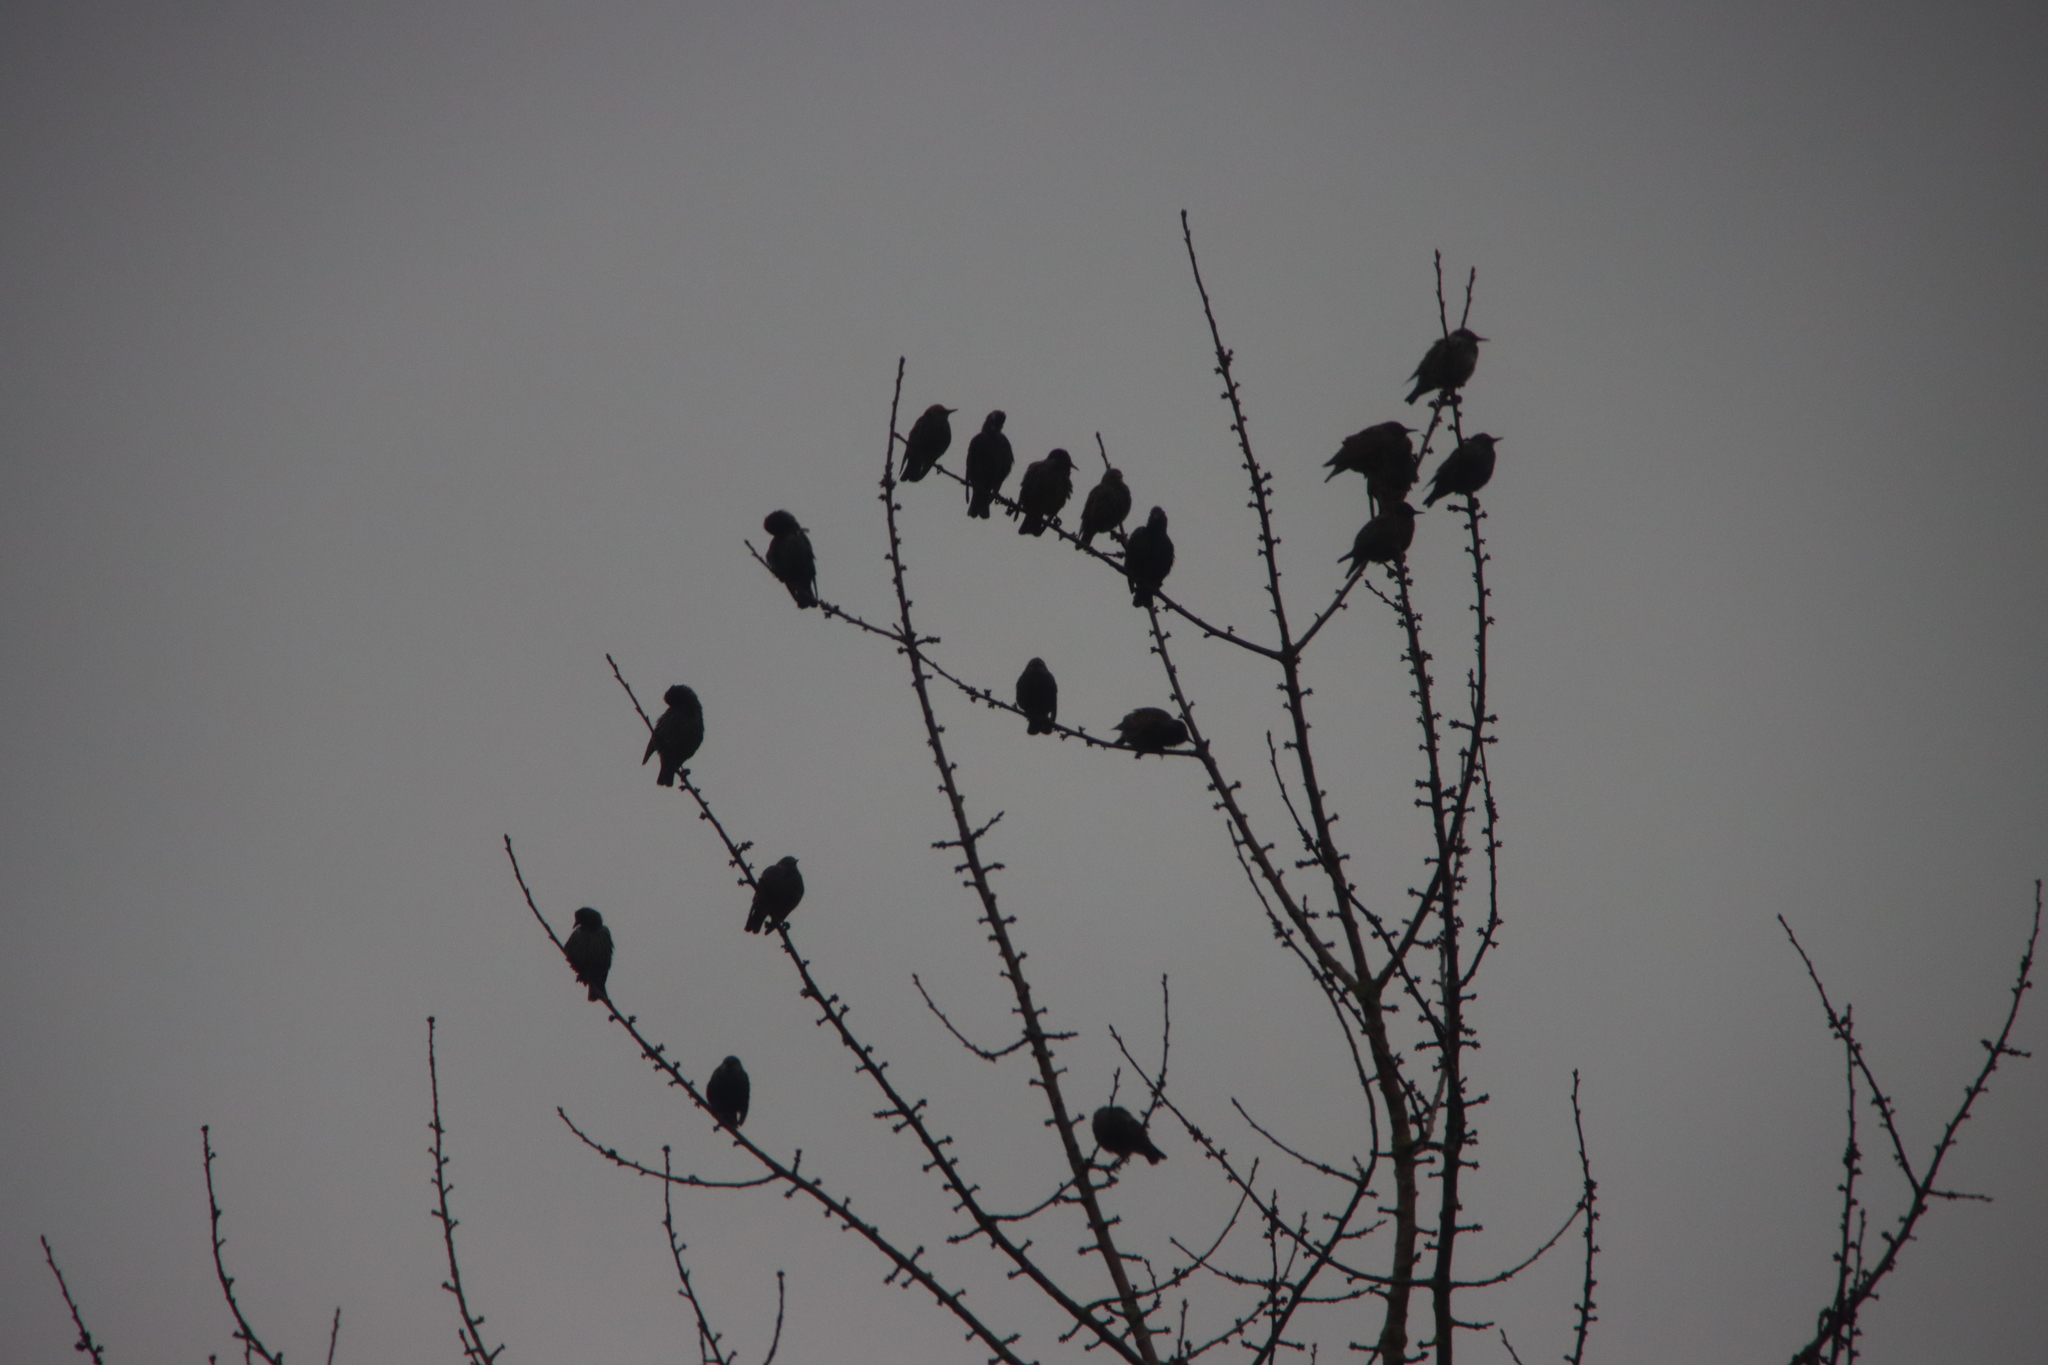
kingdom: Animalia
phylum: Chordata
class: Aves
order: Passeriformes
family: Sturnidae
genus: Sturnus
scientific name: Sturnus vulgaris
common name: Common starling
